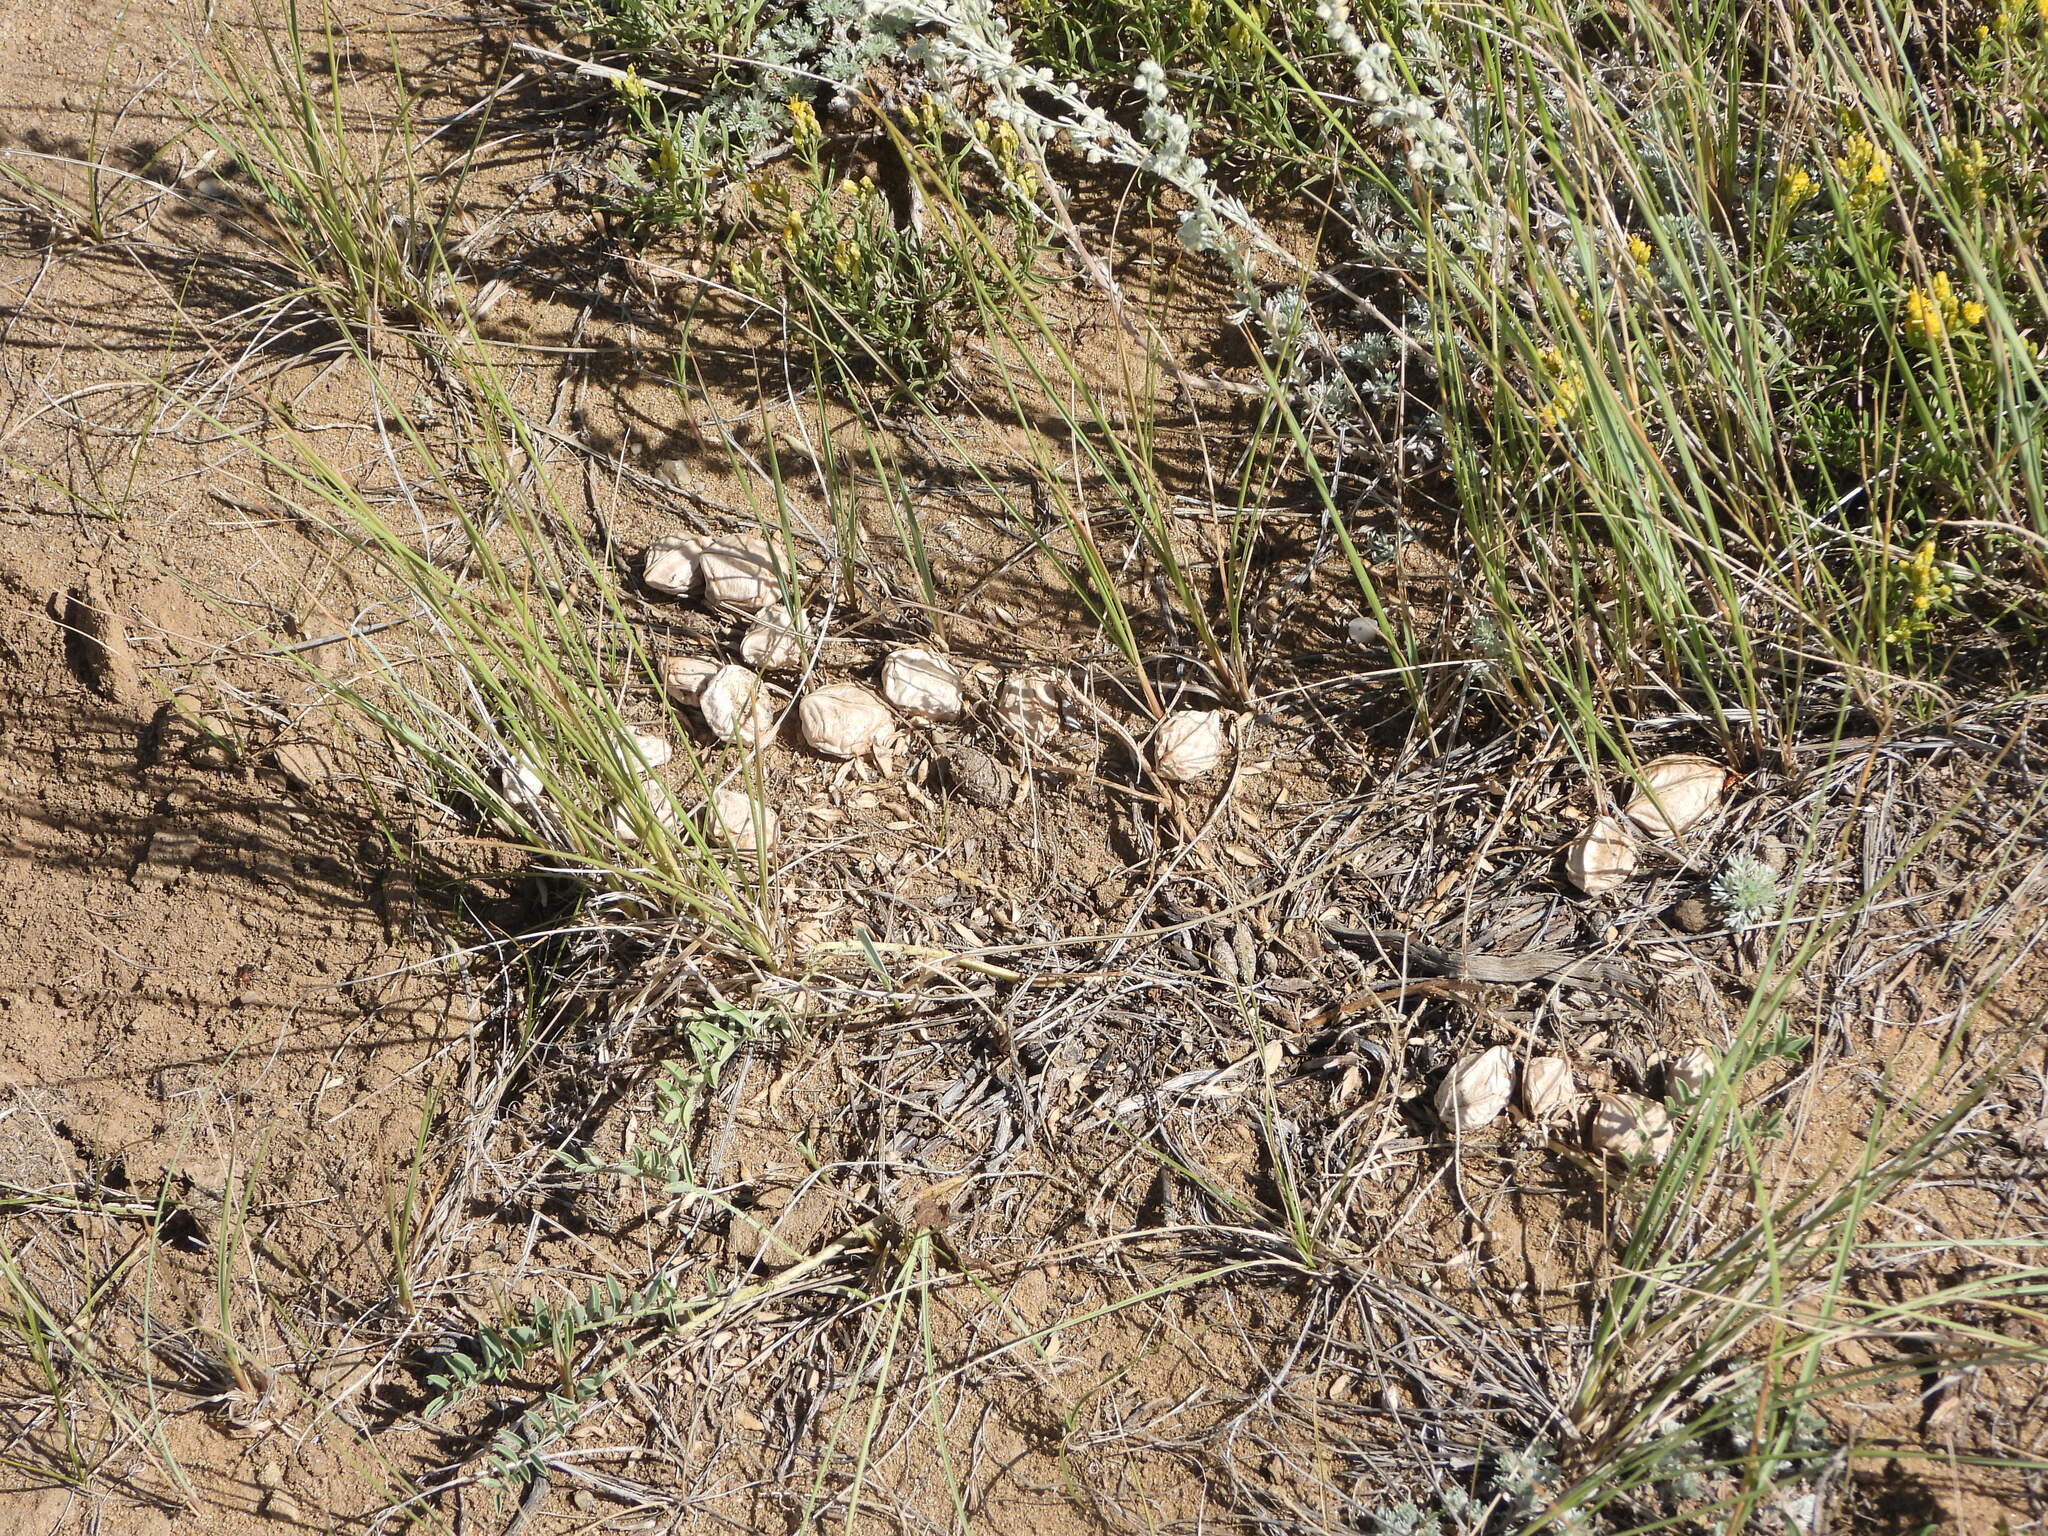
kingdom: Plantae
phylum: Tracheophyta
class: Magnoliopsida
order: Fabales
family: Fabaceae
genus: Astragalus
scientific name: Astragalus crassicarpus
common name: Ground-plum milk-vetch
